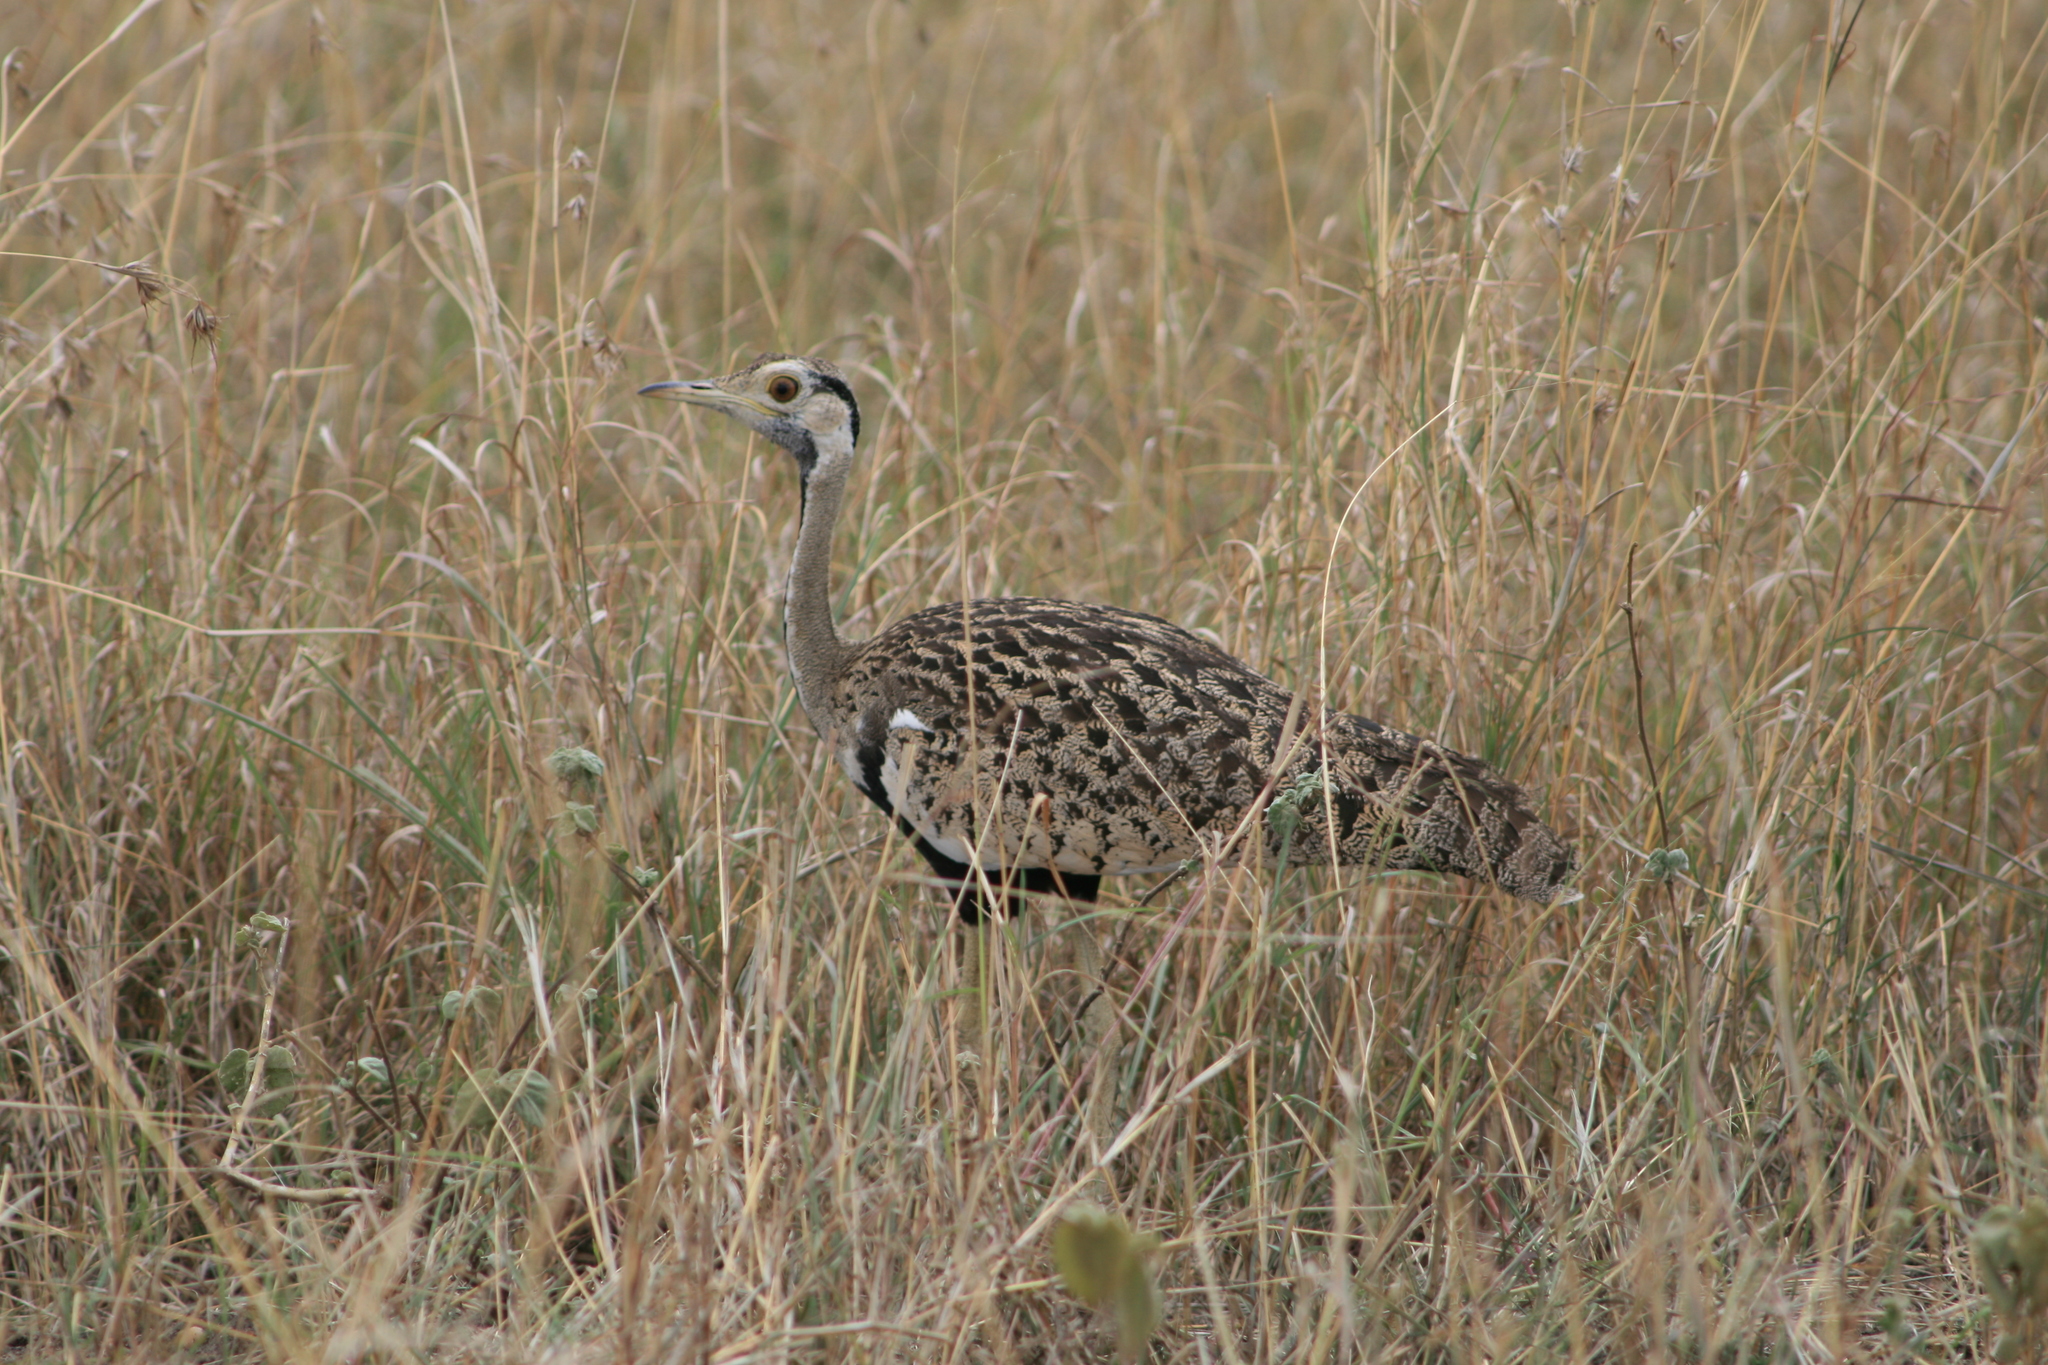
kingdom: Animalia
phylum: Chordata
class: Aves
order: Otidiformes
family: Otididae
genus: Lissotis
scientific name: Lissotis melanogaster
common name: Black-bellied bustard
